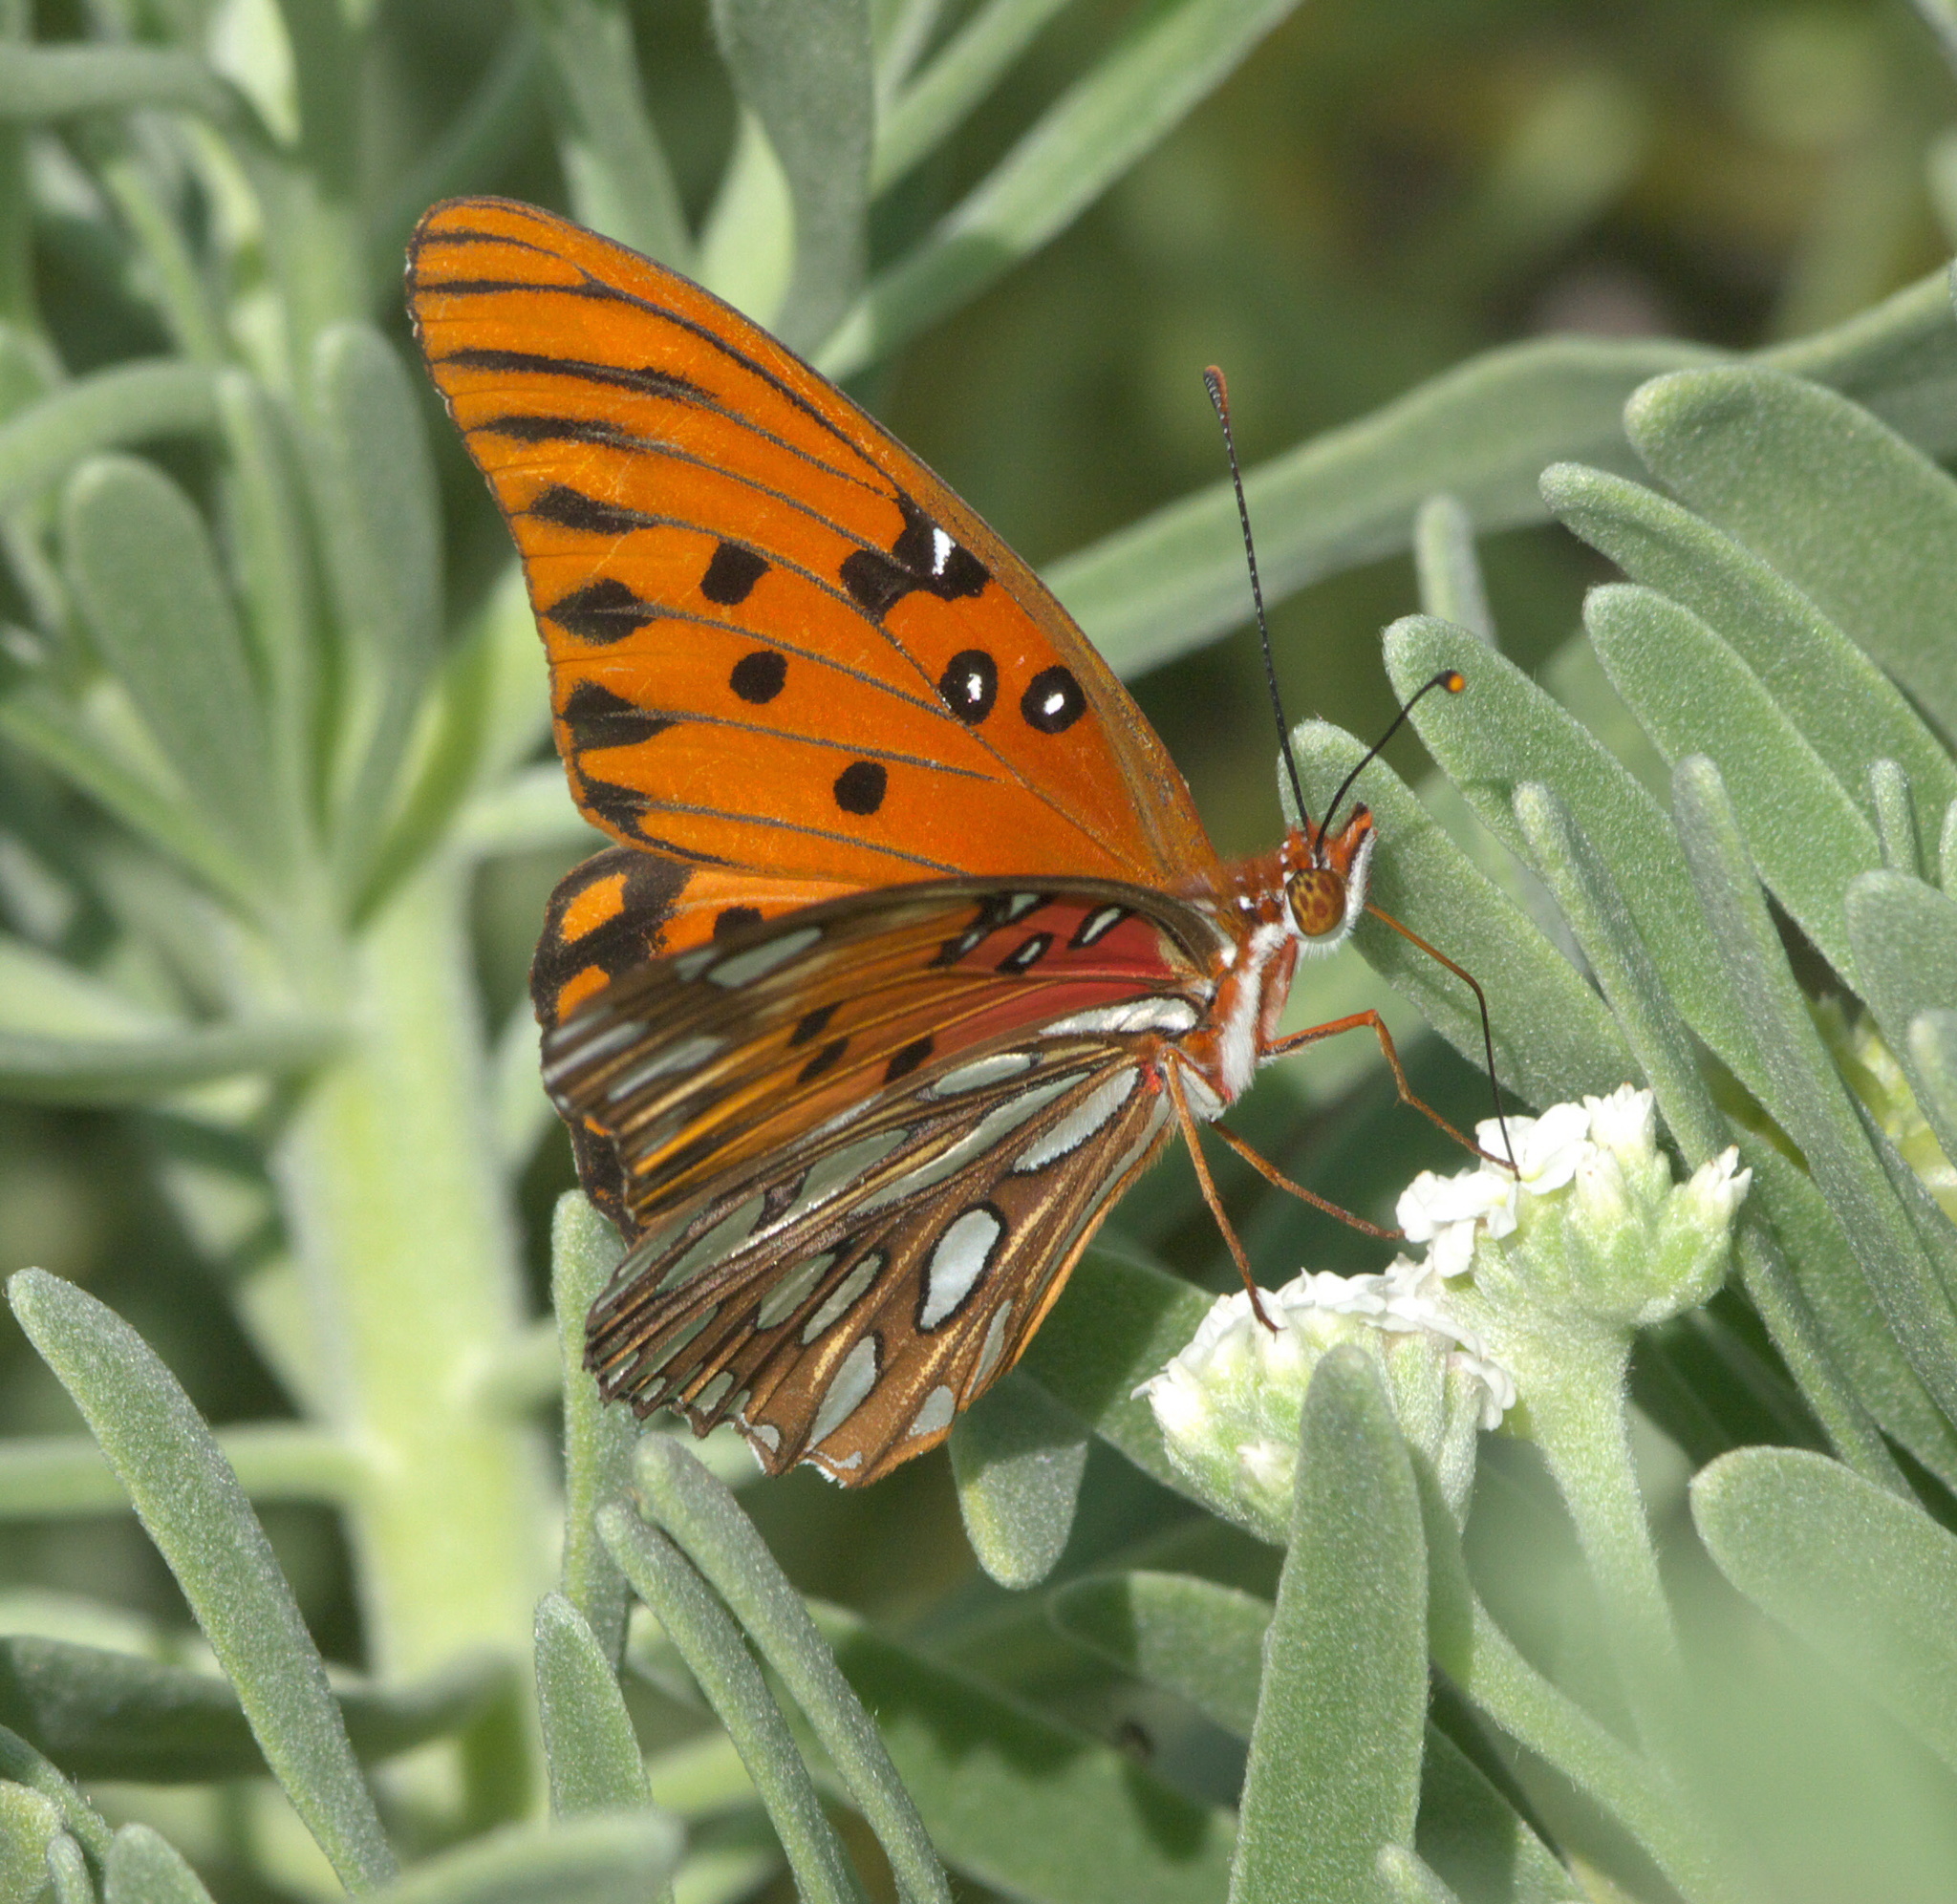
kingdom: Animalia
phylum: Arthropoda
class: Insecta
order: Lepidoptera
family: Nymphalidae
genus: Dione
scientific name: Dione vanillae
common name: Gulf fritillary
